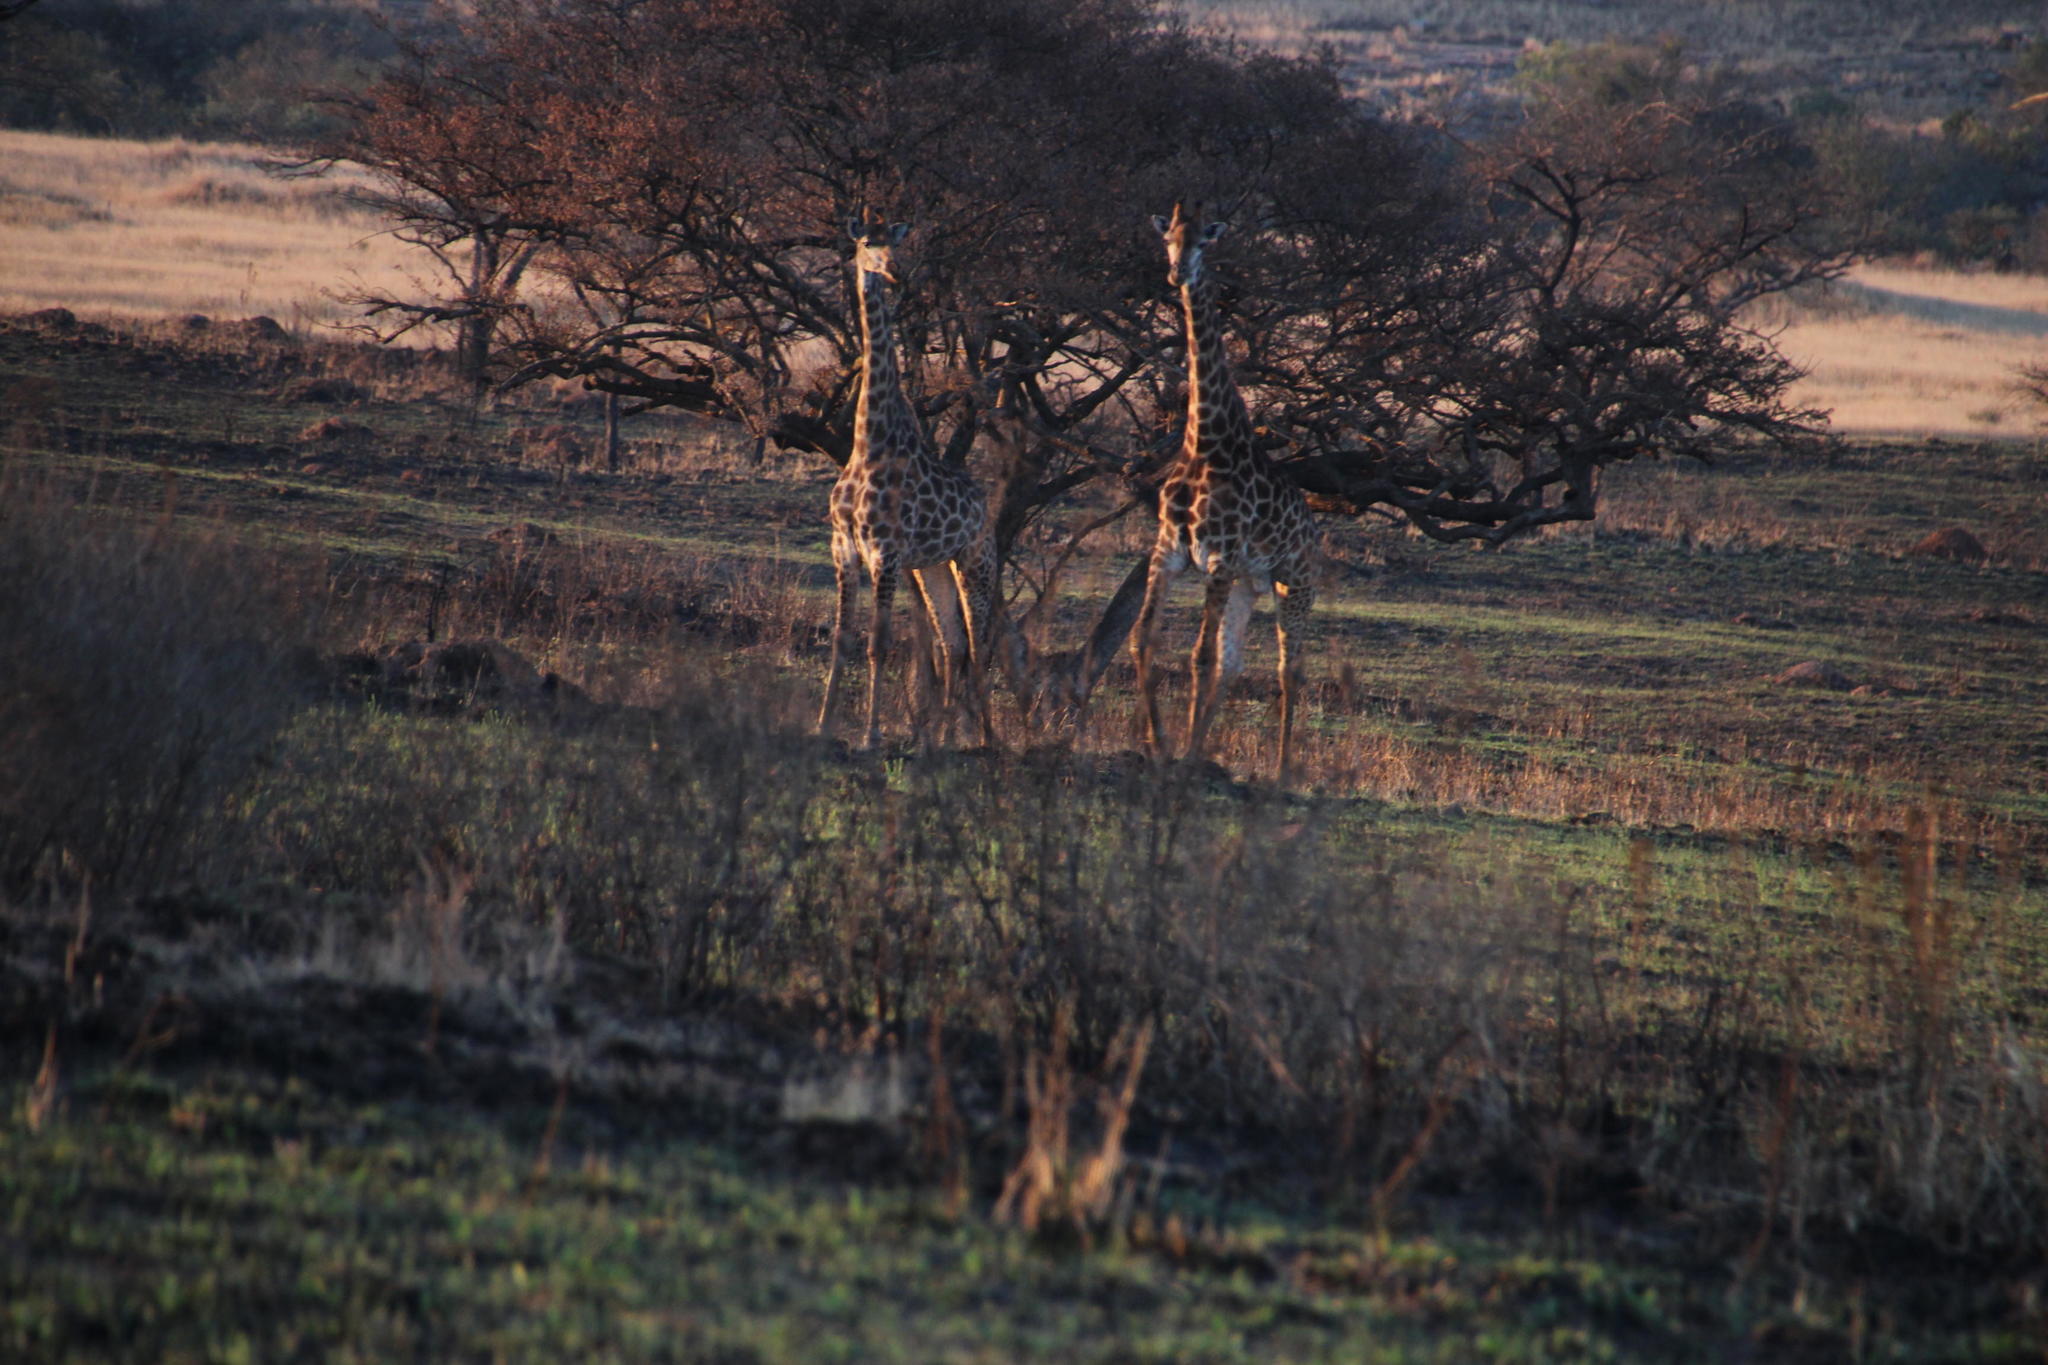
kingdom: Animalia
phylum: Chordata
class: Mammalia
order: Artiodactyla
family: Giraffidae
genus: Giraffa
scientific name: Giraffa giraffa
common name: Southern giraffe
